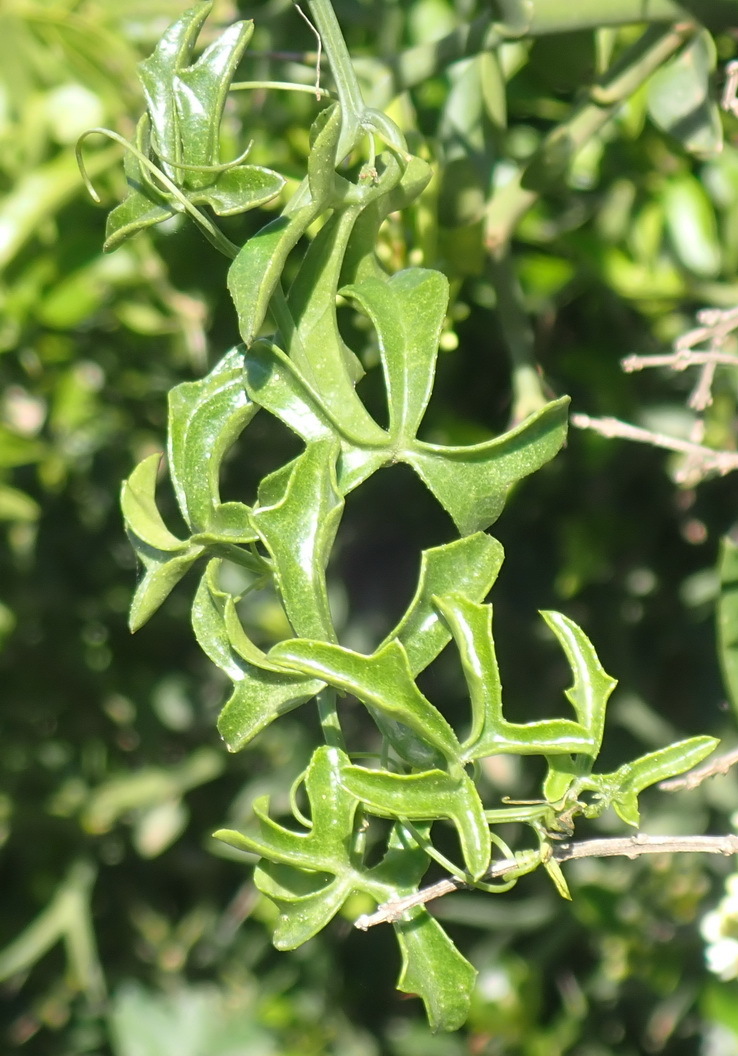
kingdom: Plantae
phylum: Tracheophyta
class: Magnoliopsida
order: Cucurbitales
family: Cucurbitaceae
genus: Kedrostis
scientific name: Kedrostis capensis
